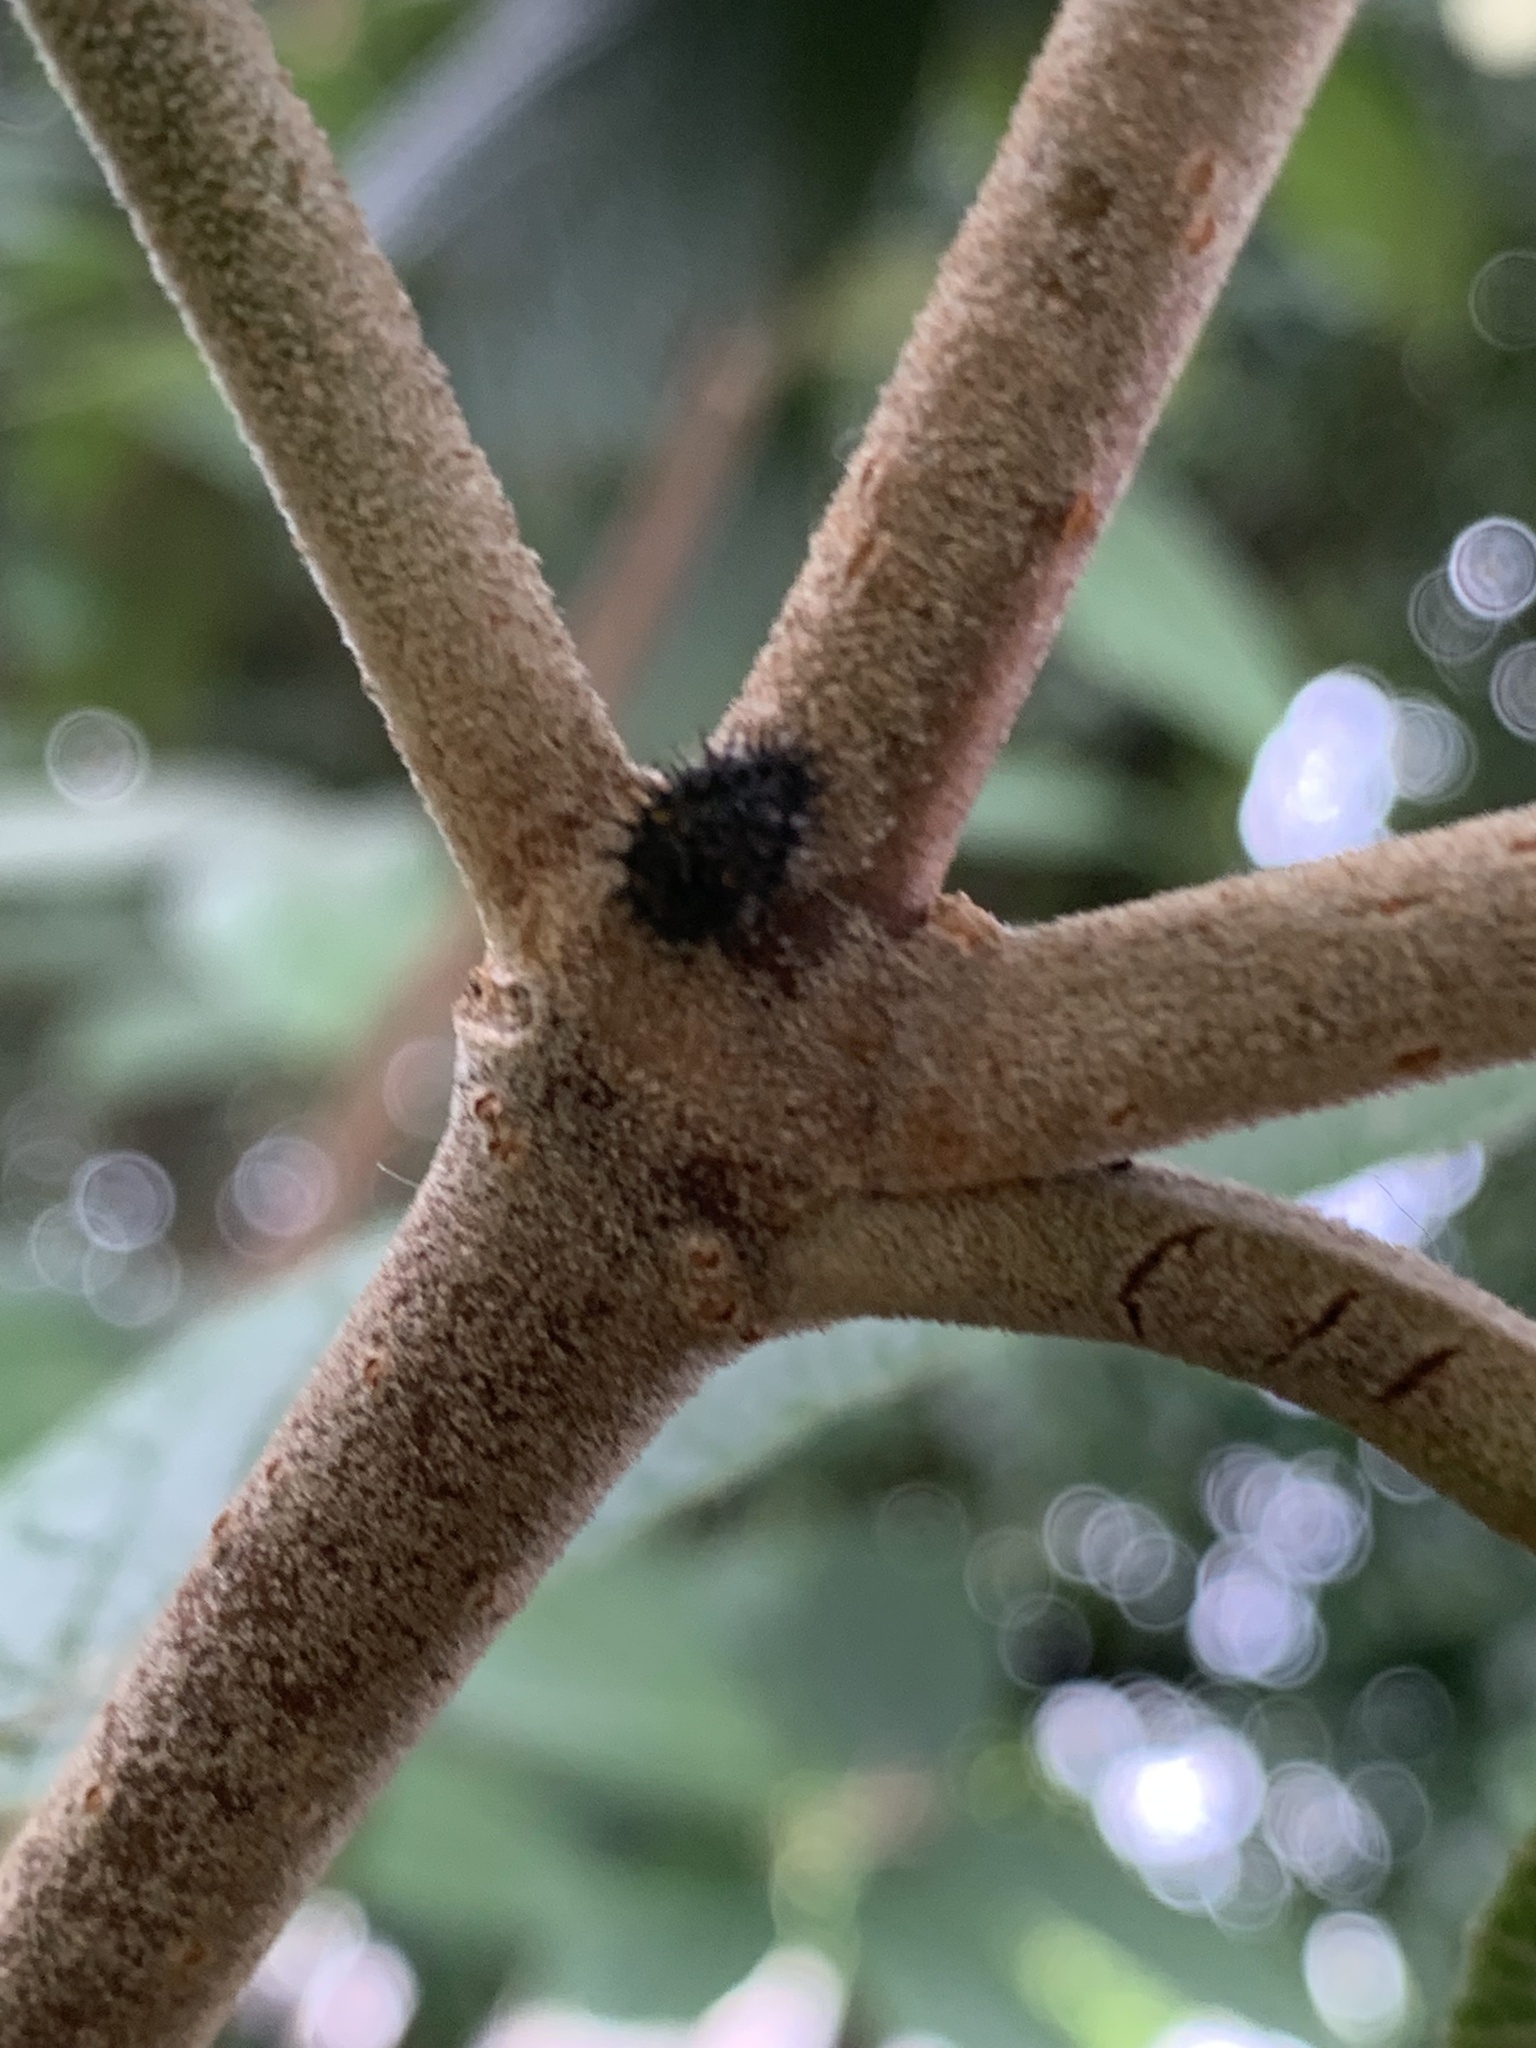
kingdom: Animalia
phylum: Arthropoda
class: Insecta
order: Coleoptera
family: Coccinellidae
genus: Chilocorus
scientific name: Chilocorus renipustulatus
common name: Kidney-spot ladybird
